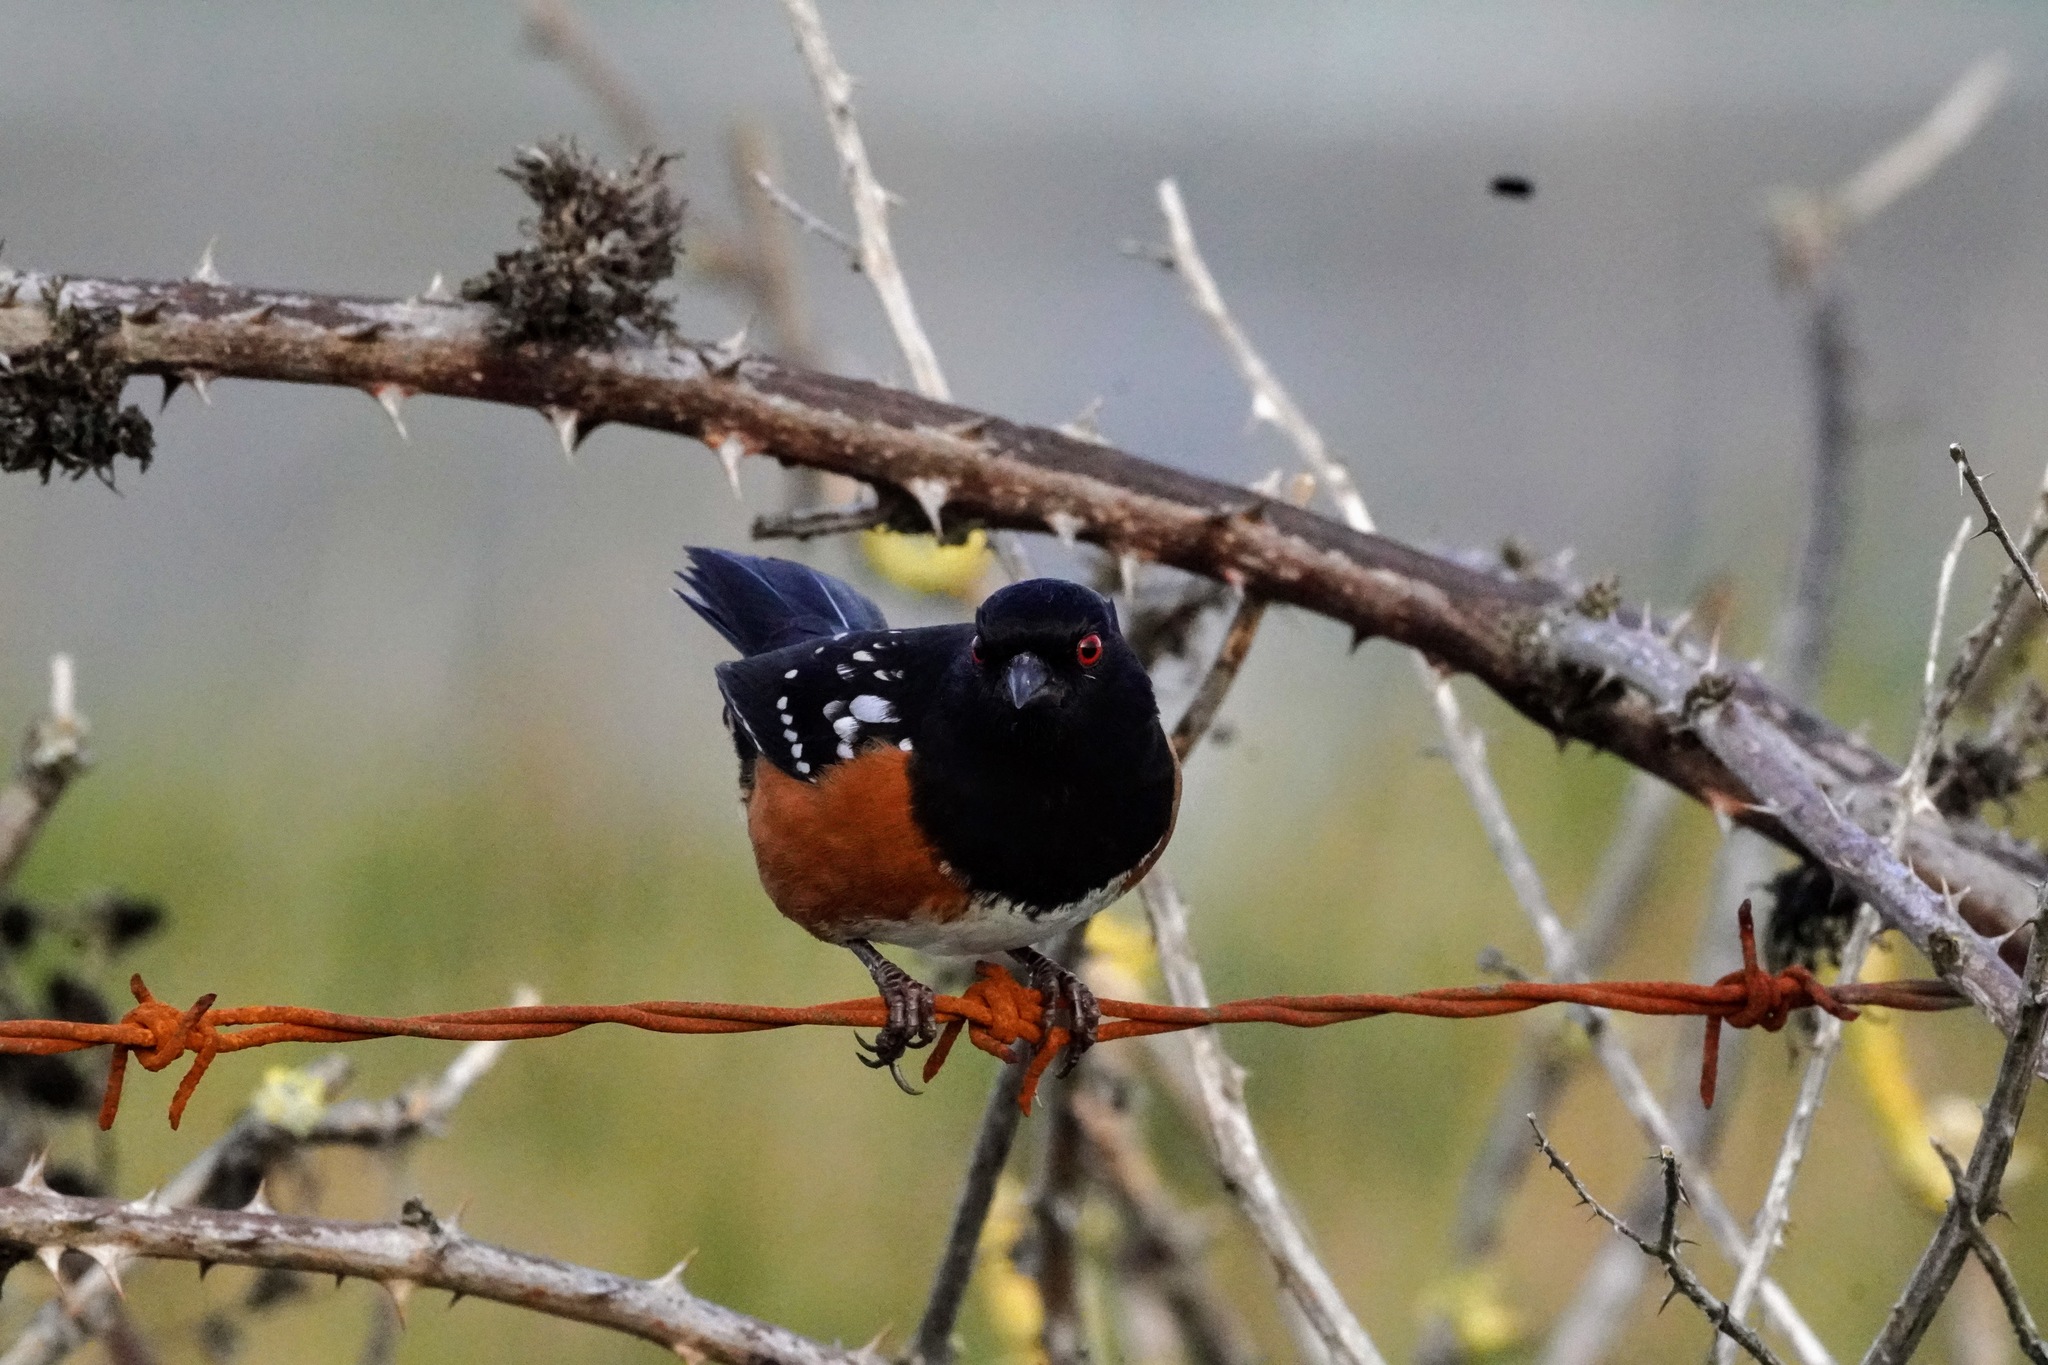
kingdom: Animalia
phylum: Chordata
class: Aves
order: Passeriformes
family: Passerellidae
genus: Pipilo
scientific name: Pipilo maculatus
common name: Spotted towhee
